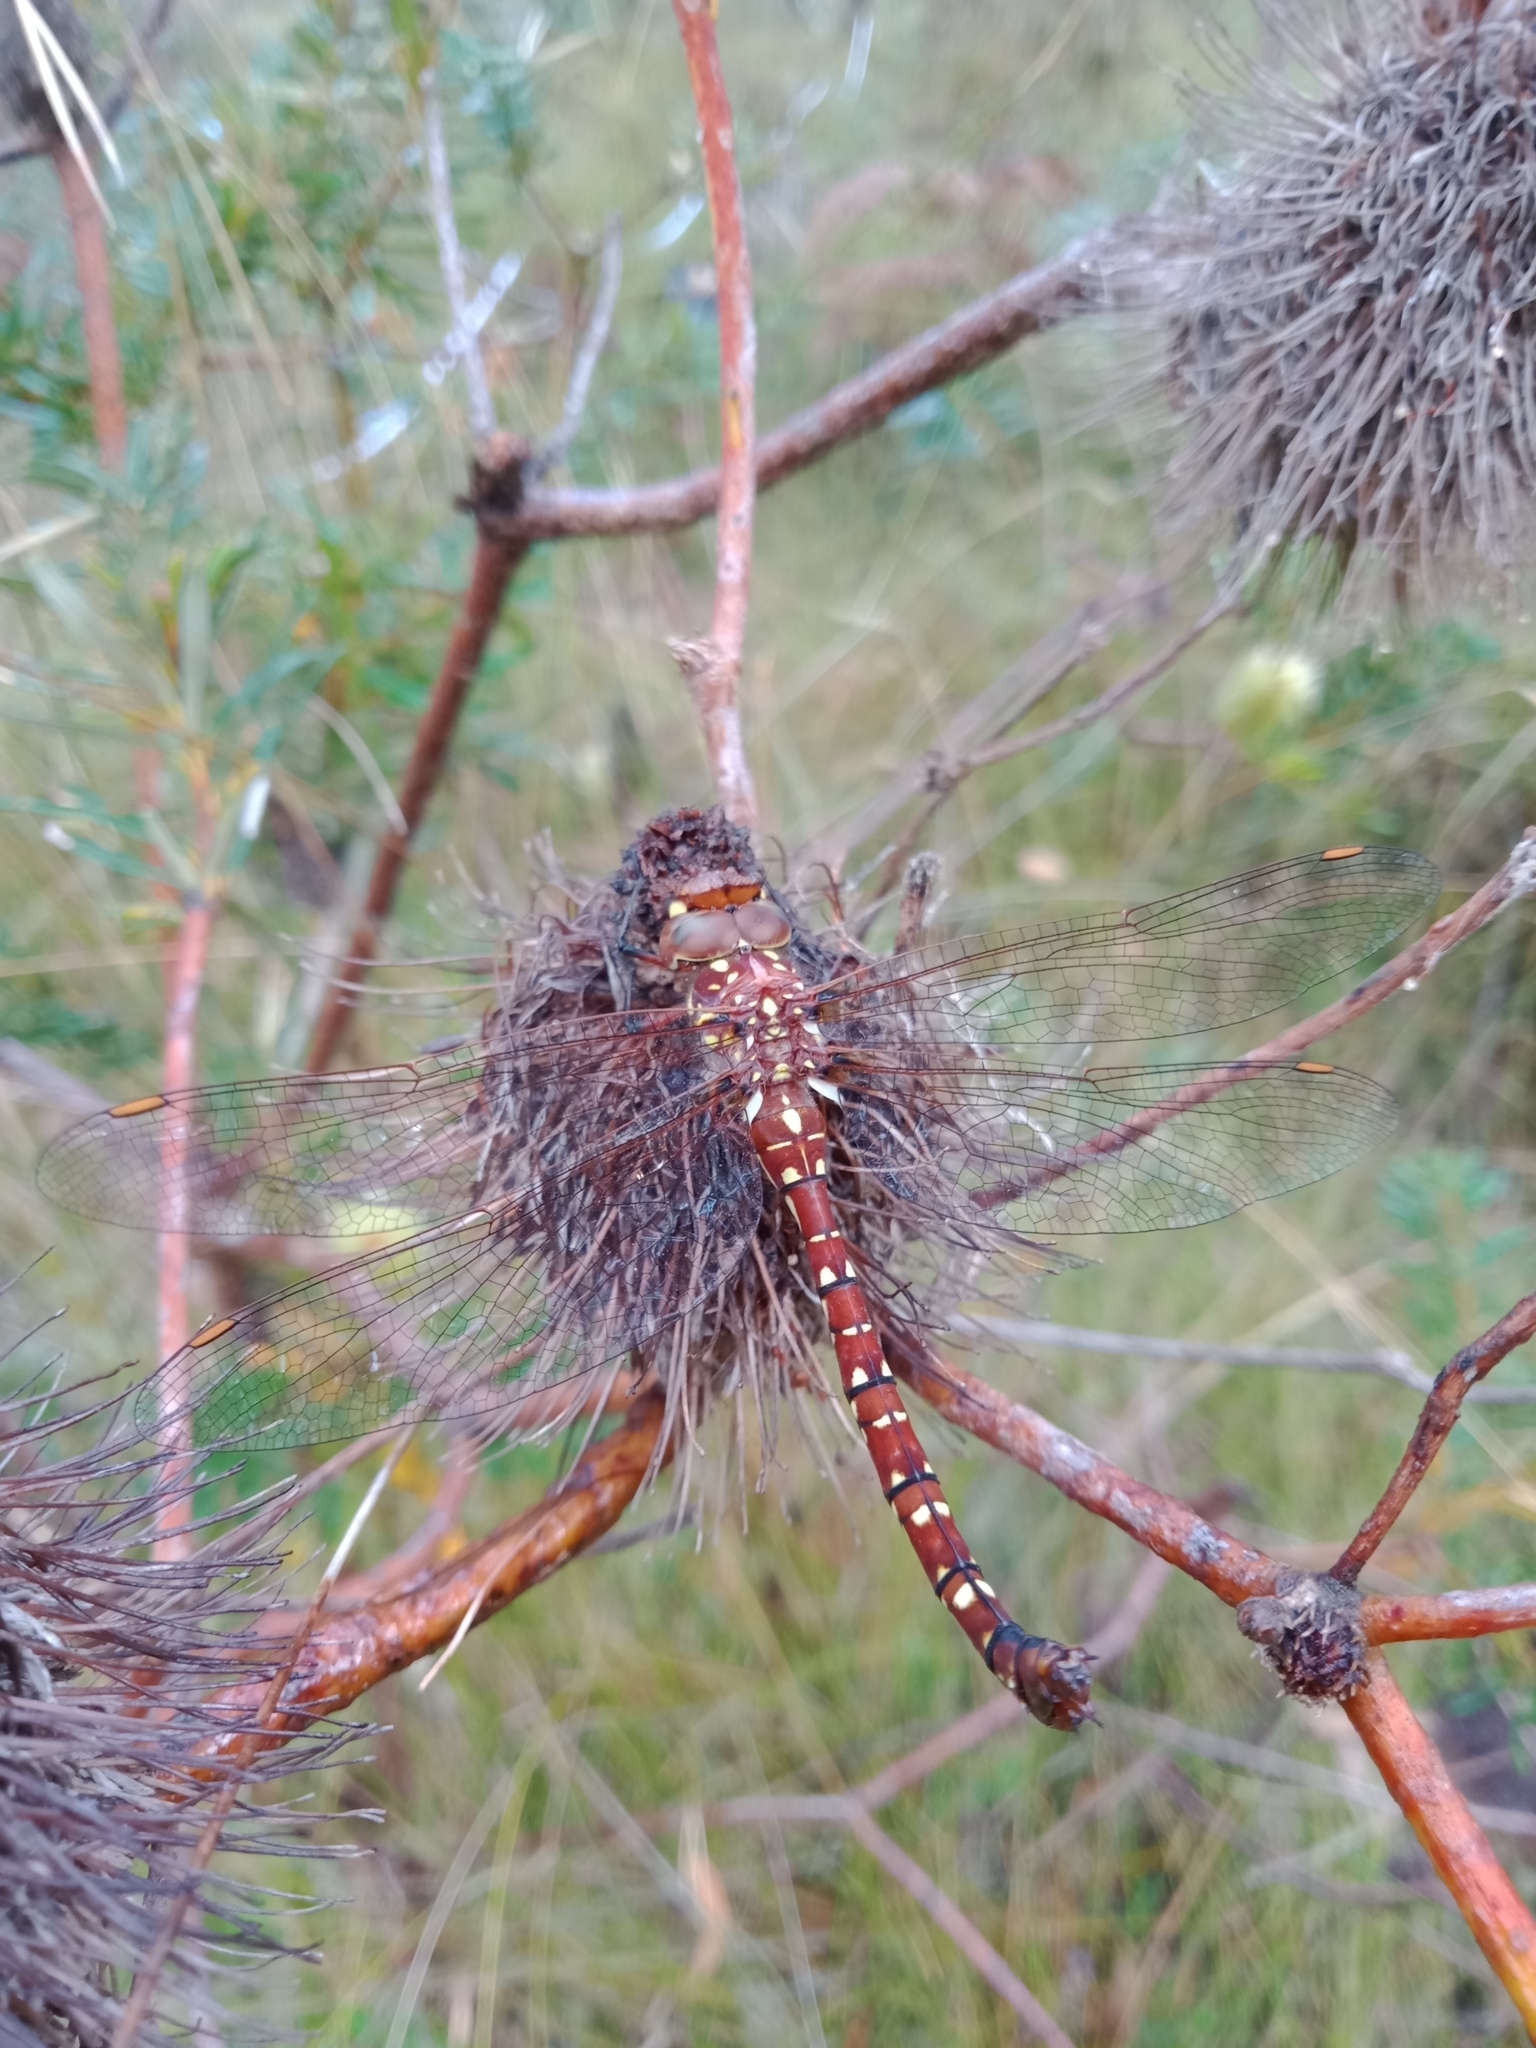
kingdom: Animalia
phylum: Arthropoda
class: Insecta
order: Odonata
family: Aeshnidae
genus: Dendroaeschna
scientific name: Dendroaeschna conspersa
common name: Wide-faced darner
